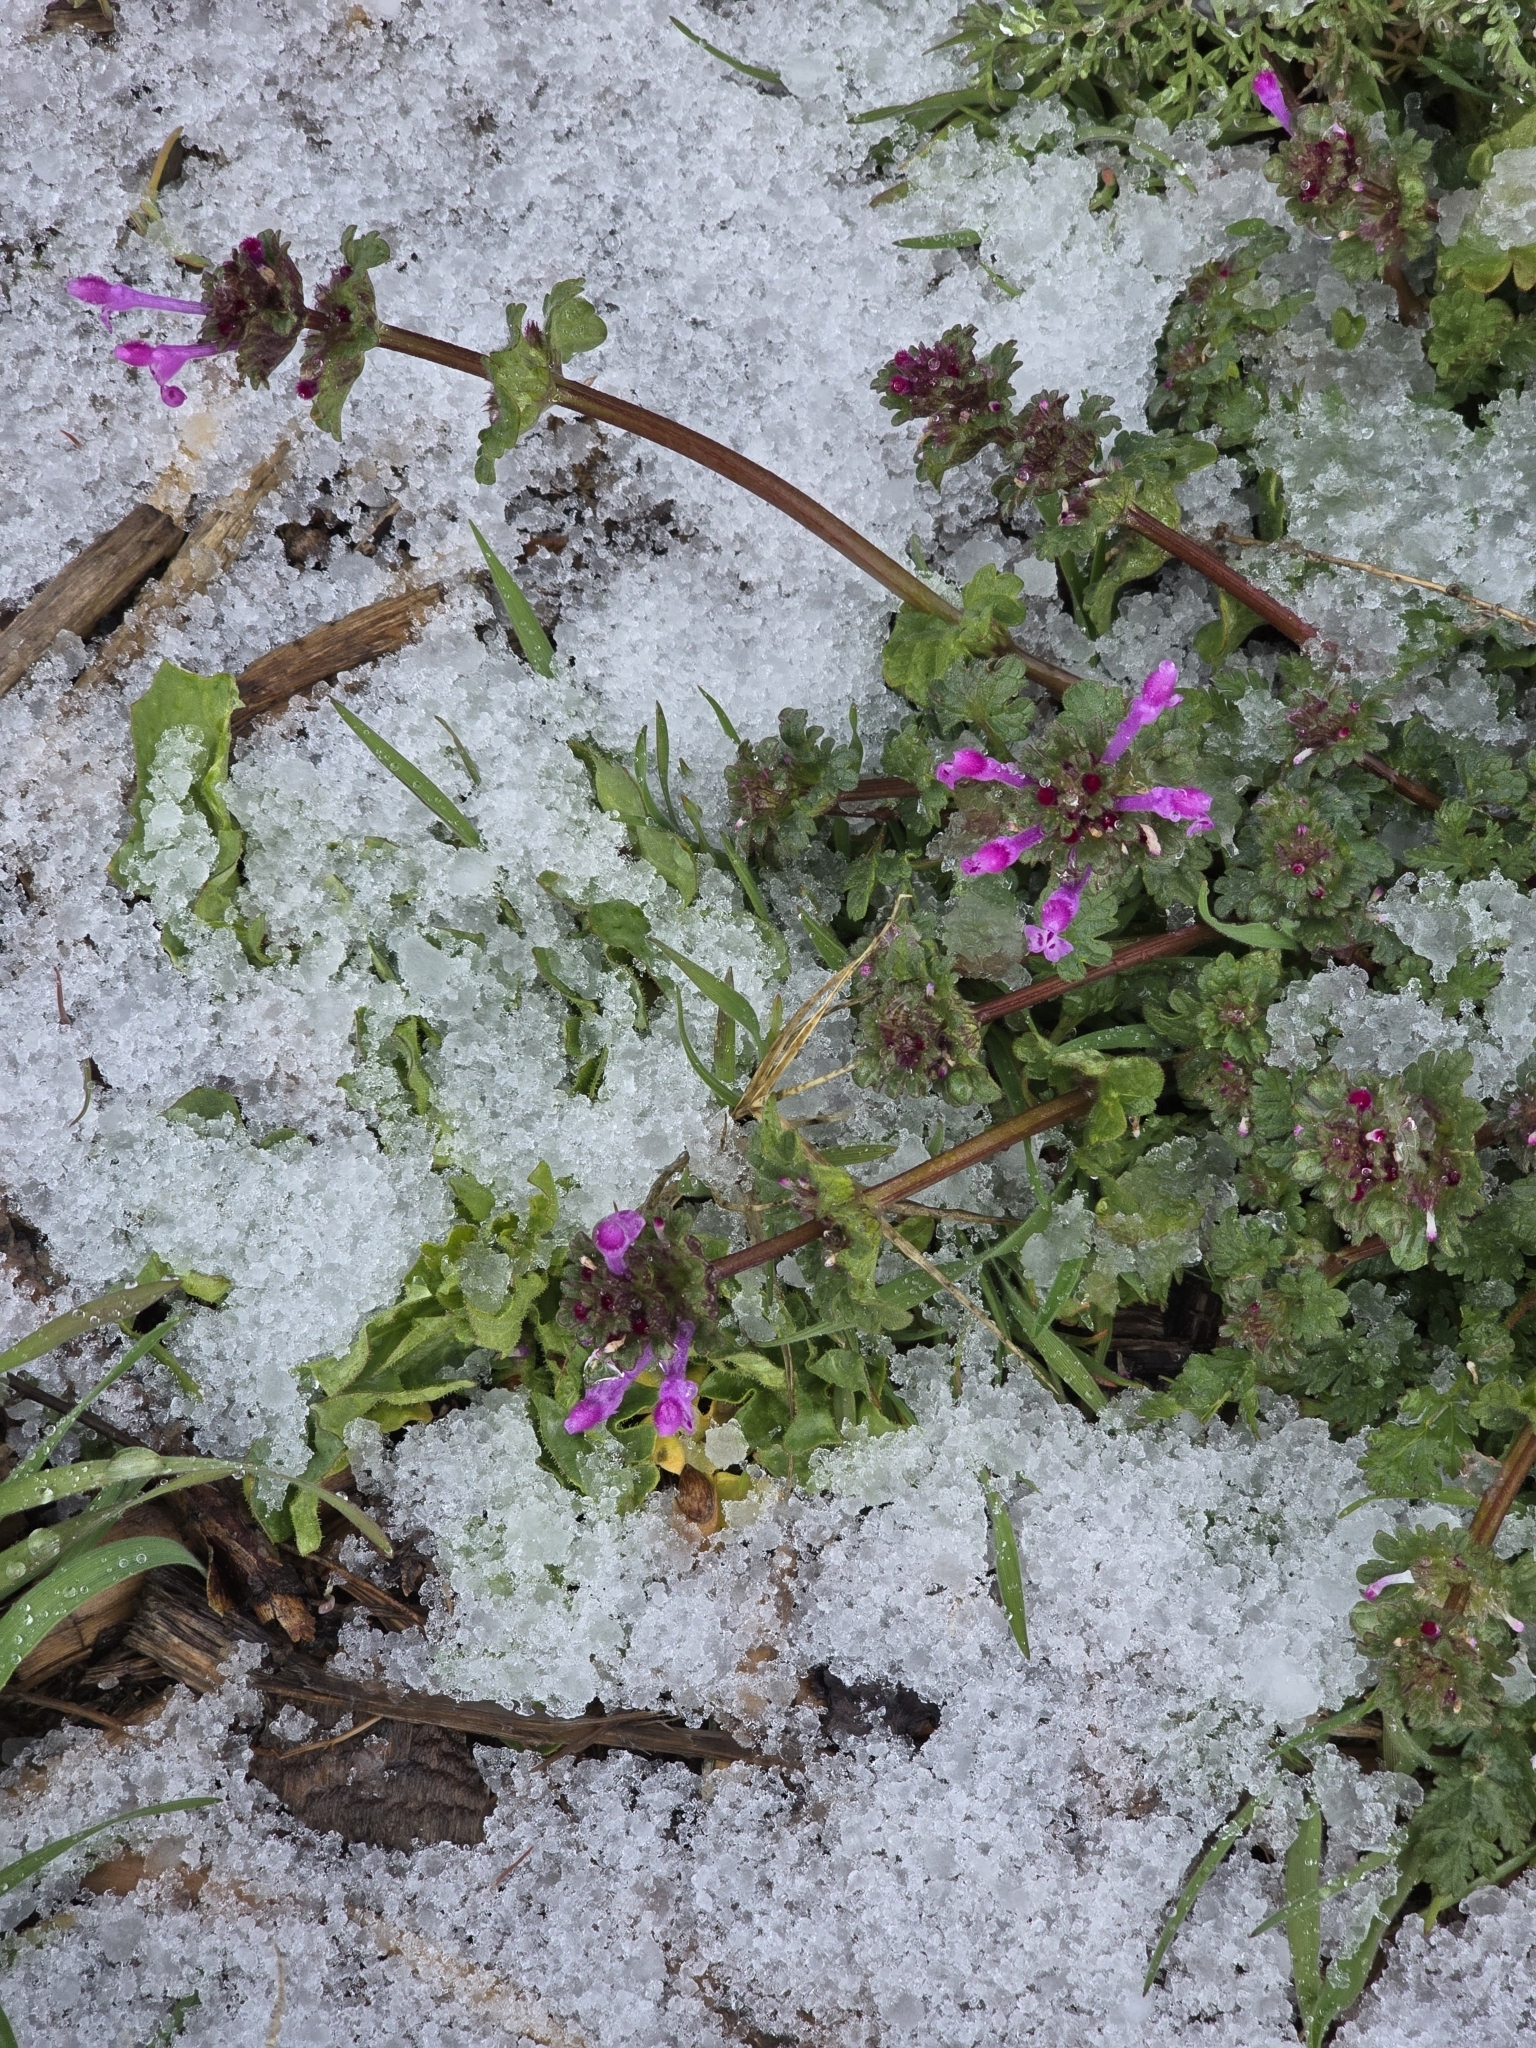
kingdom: Plantae
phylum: Tracheophyta
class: Magnoliopsida
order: Lamiales
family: Lamiaceae
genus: Lamium
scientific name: Lamium amplexicaule
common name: Henbit dead-nettle
